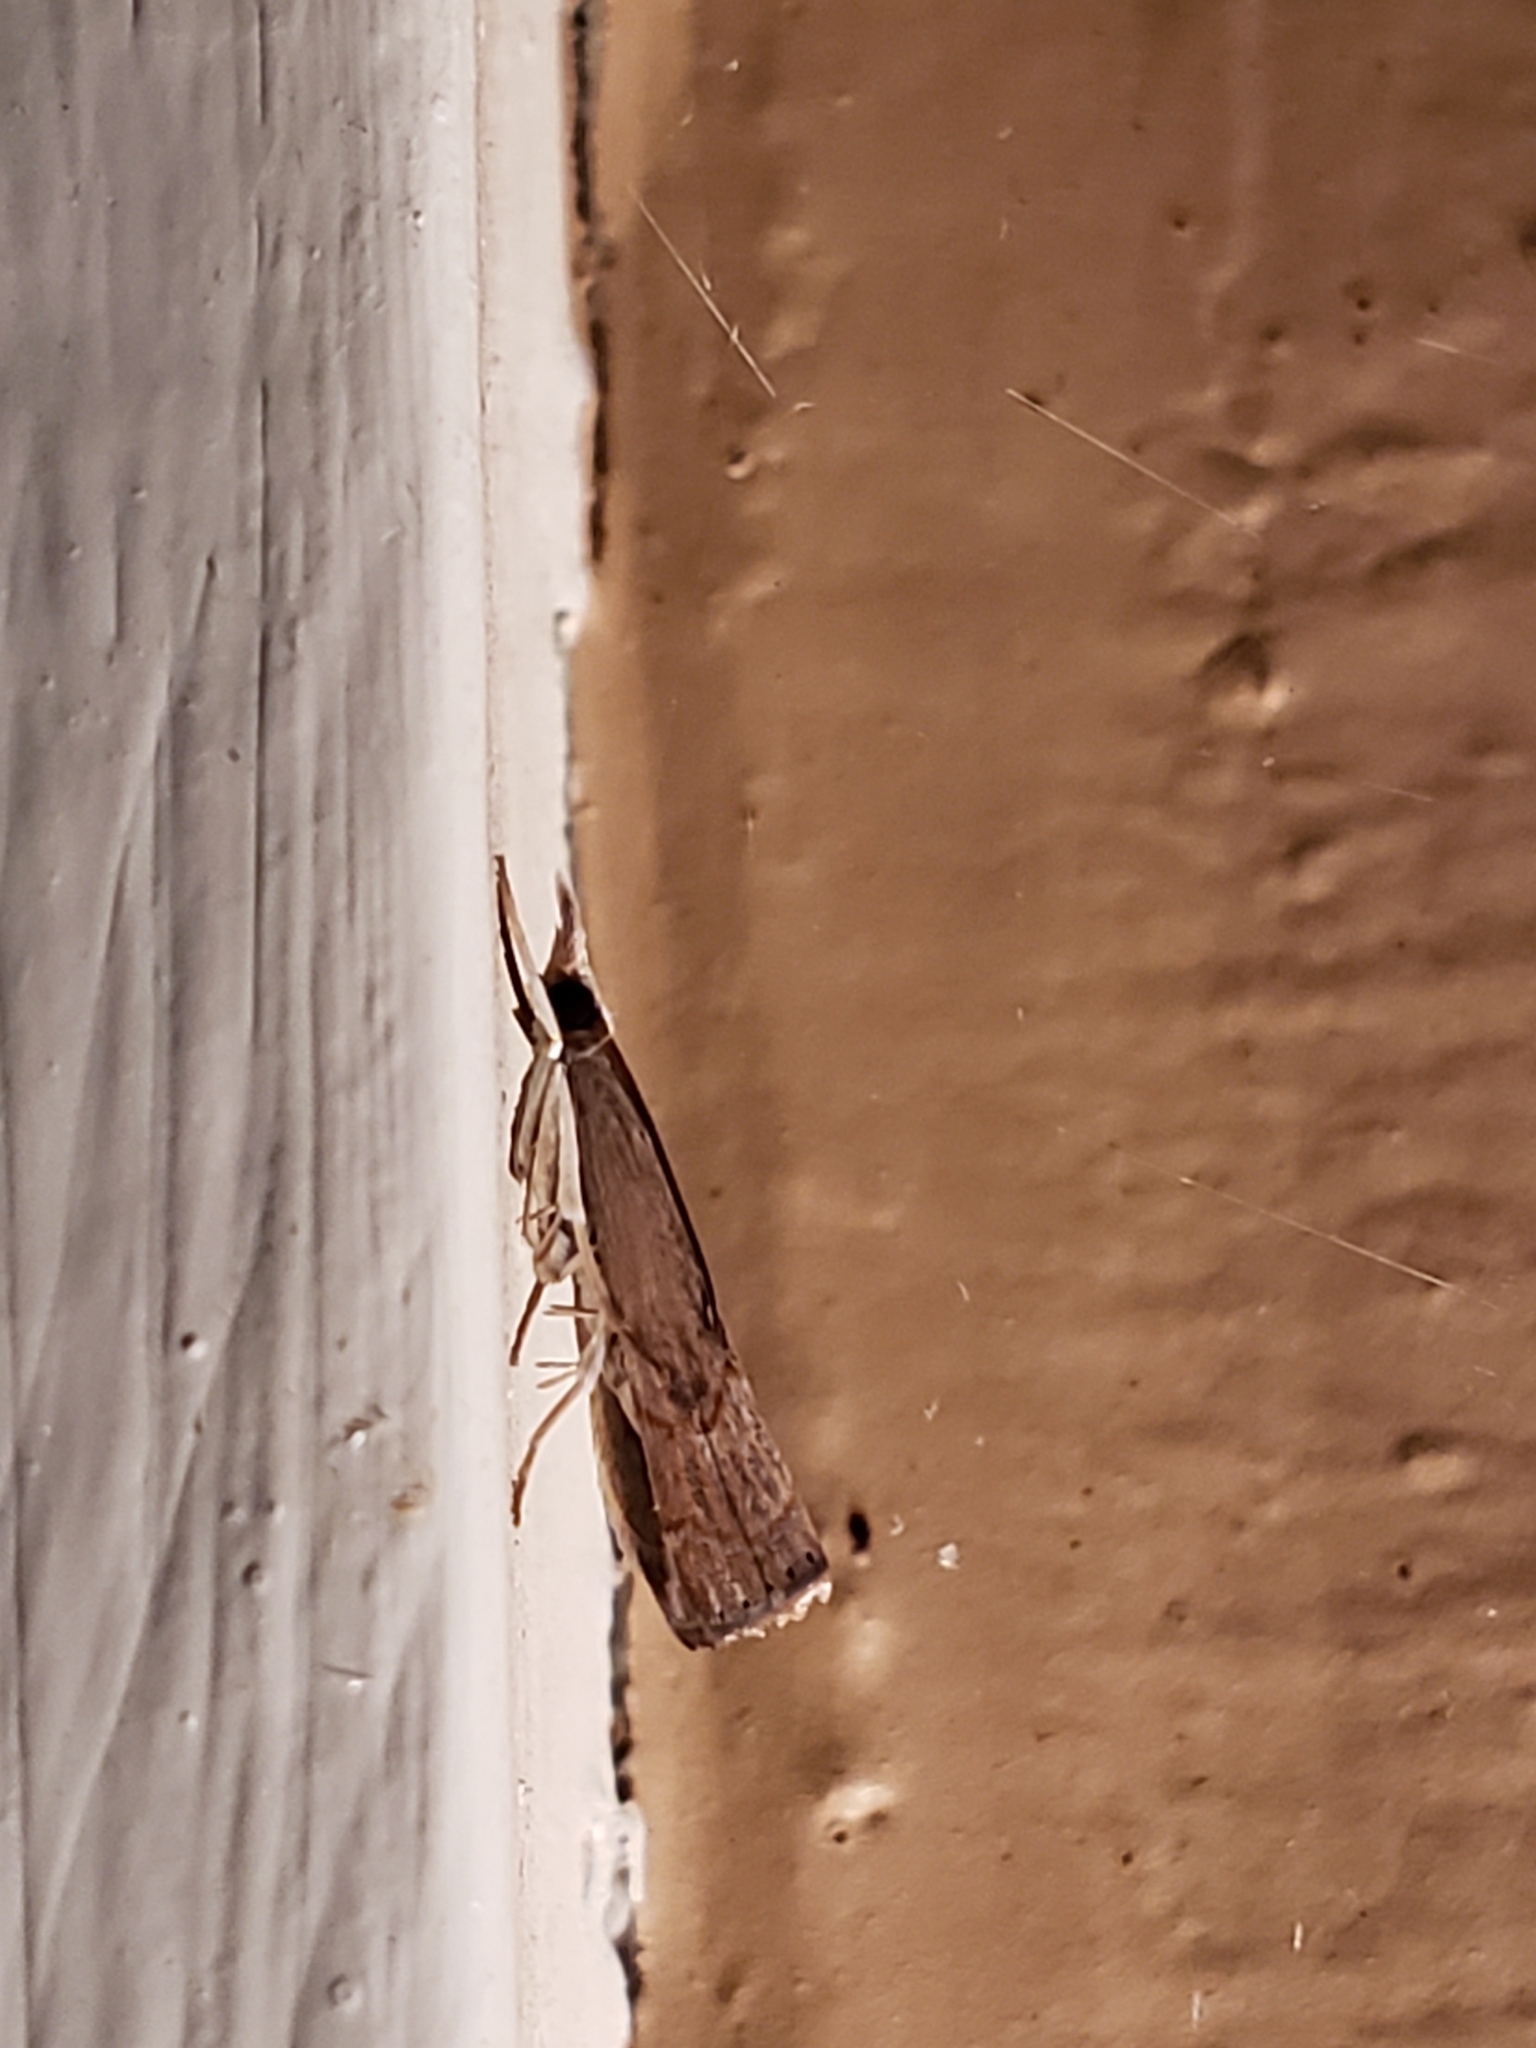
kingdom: Animalia
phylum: Arthropoda
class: Insecta
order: Lepidoptera
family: Crambidae
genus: Parapediasia
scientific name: Parapediasia teterellus
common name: Bluegrass webworm moth
